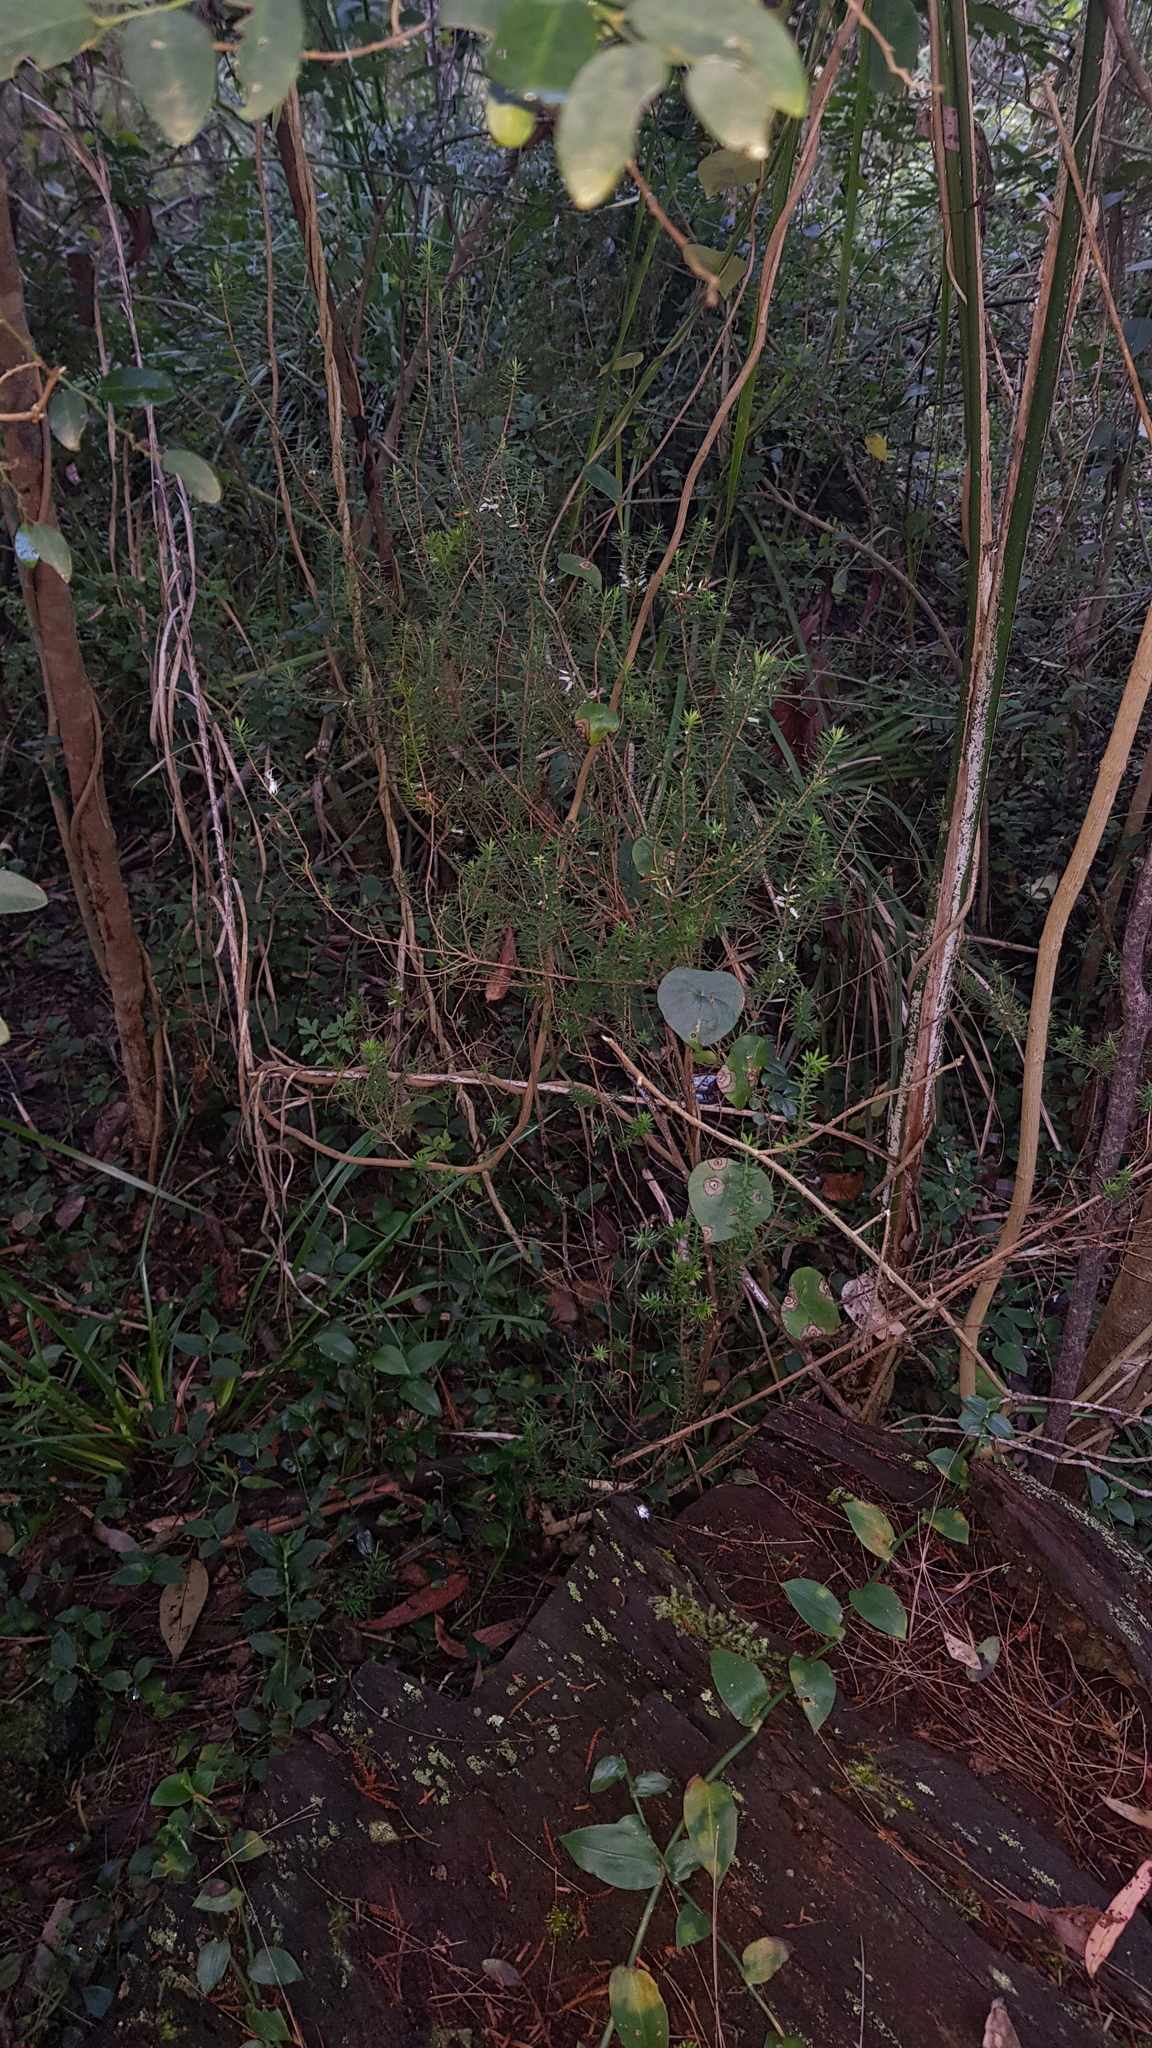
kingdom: Plantae
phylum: Tracheophyta
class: Magnoliopsida
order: Ericales
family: Ericaceae
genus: Styphelia
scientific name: Styphelia sieberi
